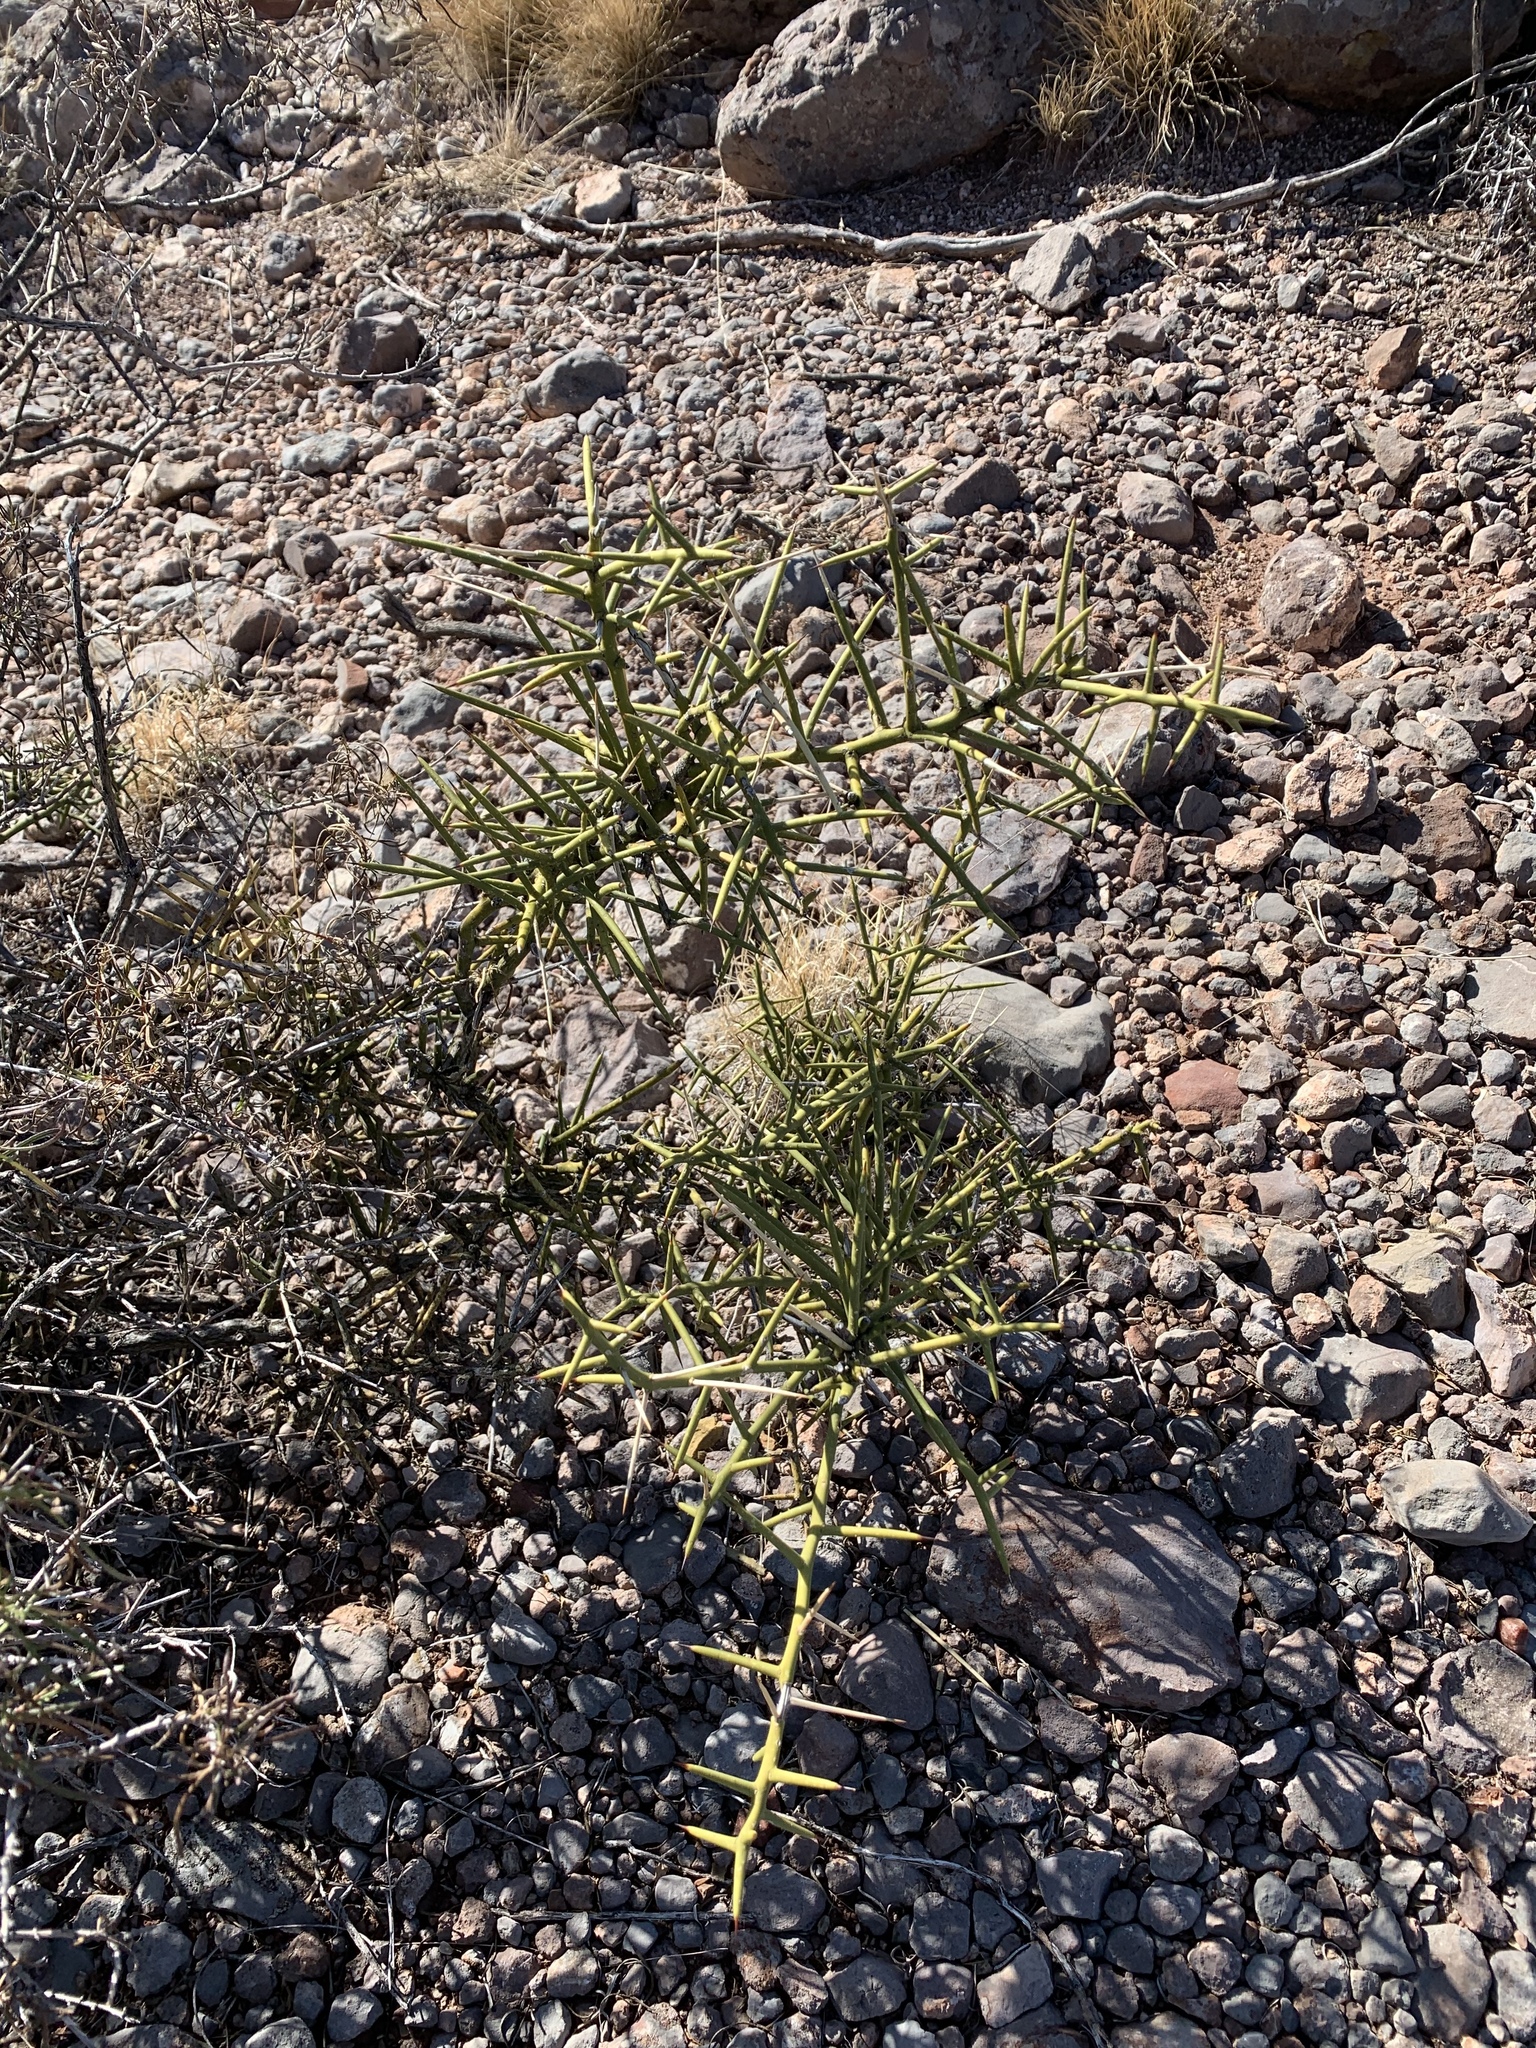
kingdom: Plantae
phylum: Tracheophyta
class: Magnoliopsida
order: Brassicales
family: Koeberliniaceae
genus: Koeberlinia
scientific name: Koeberlinia spinosa
